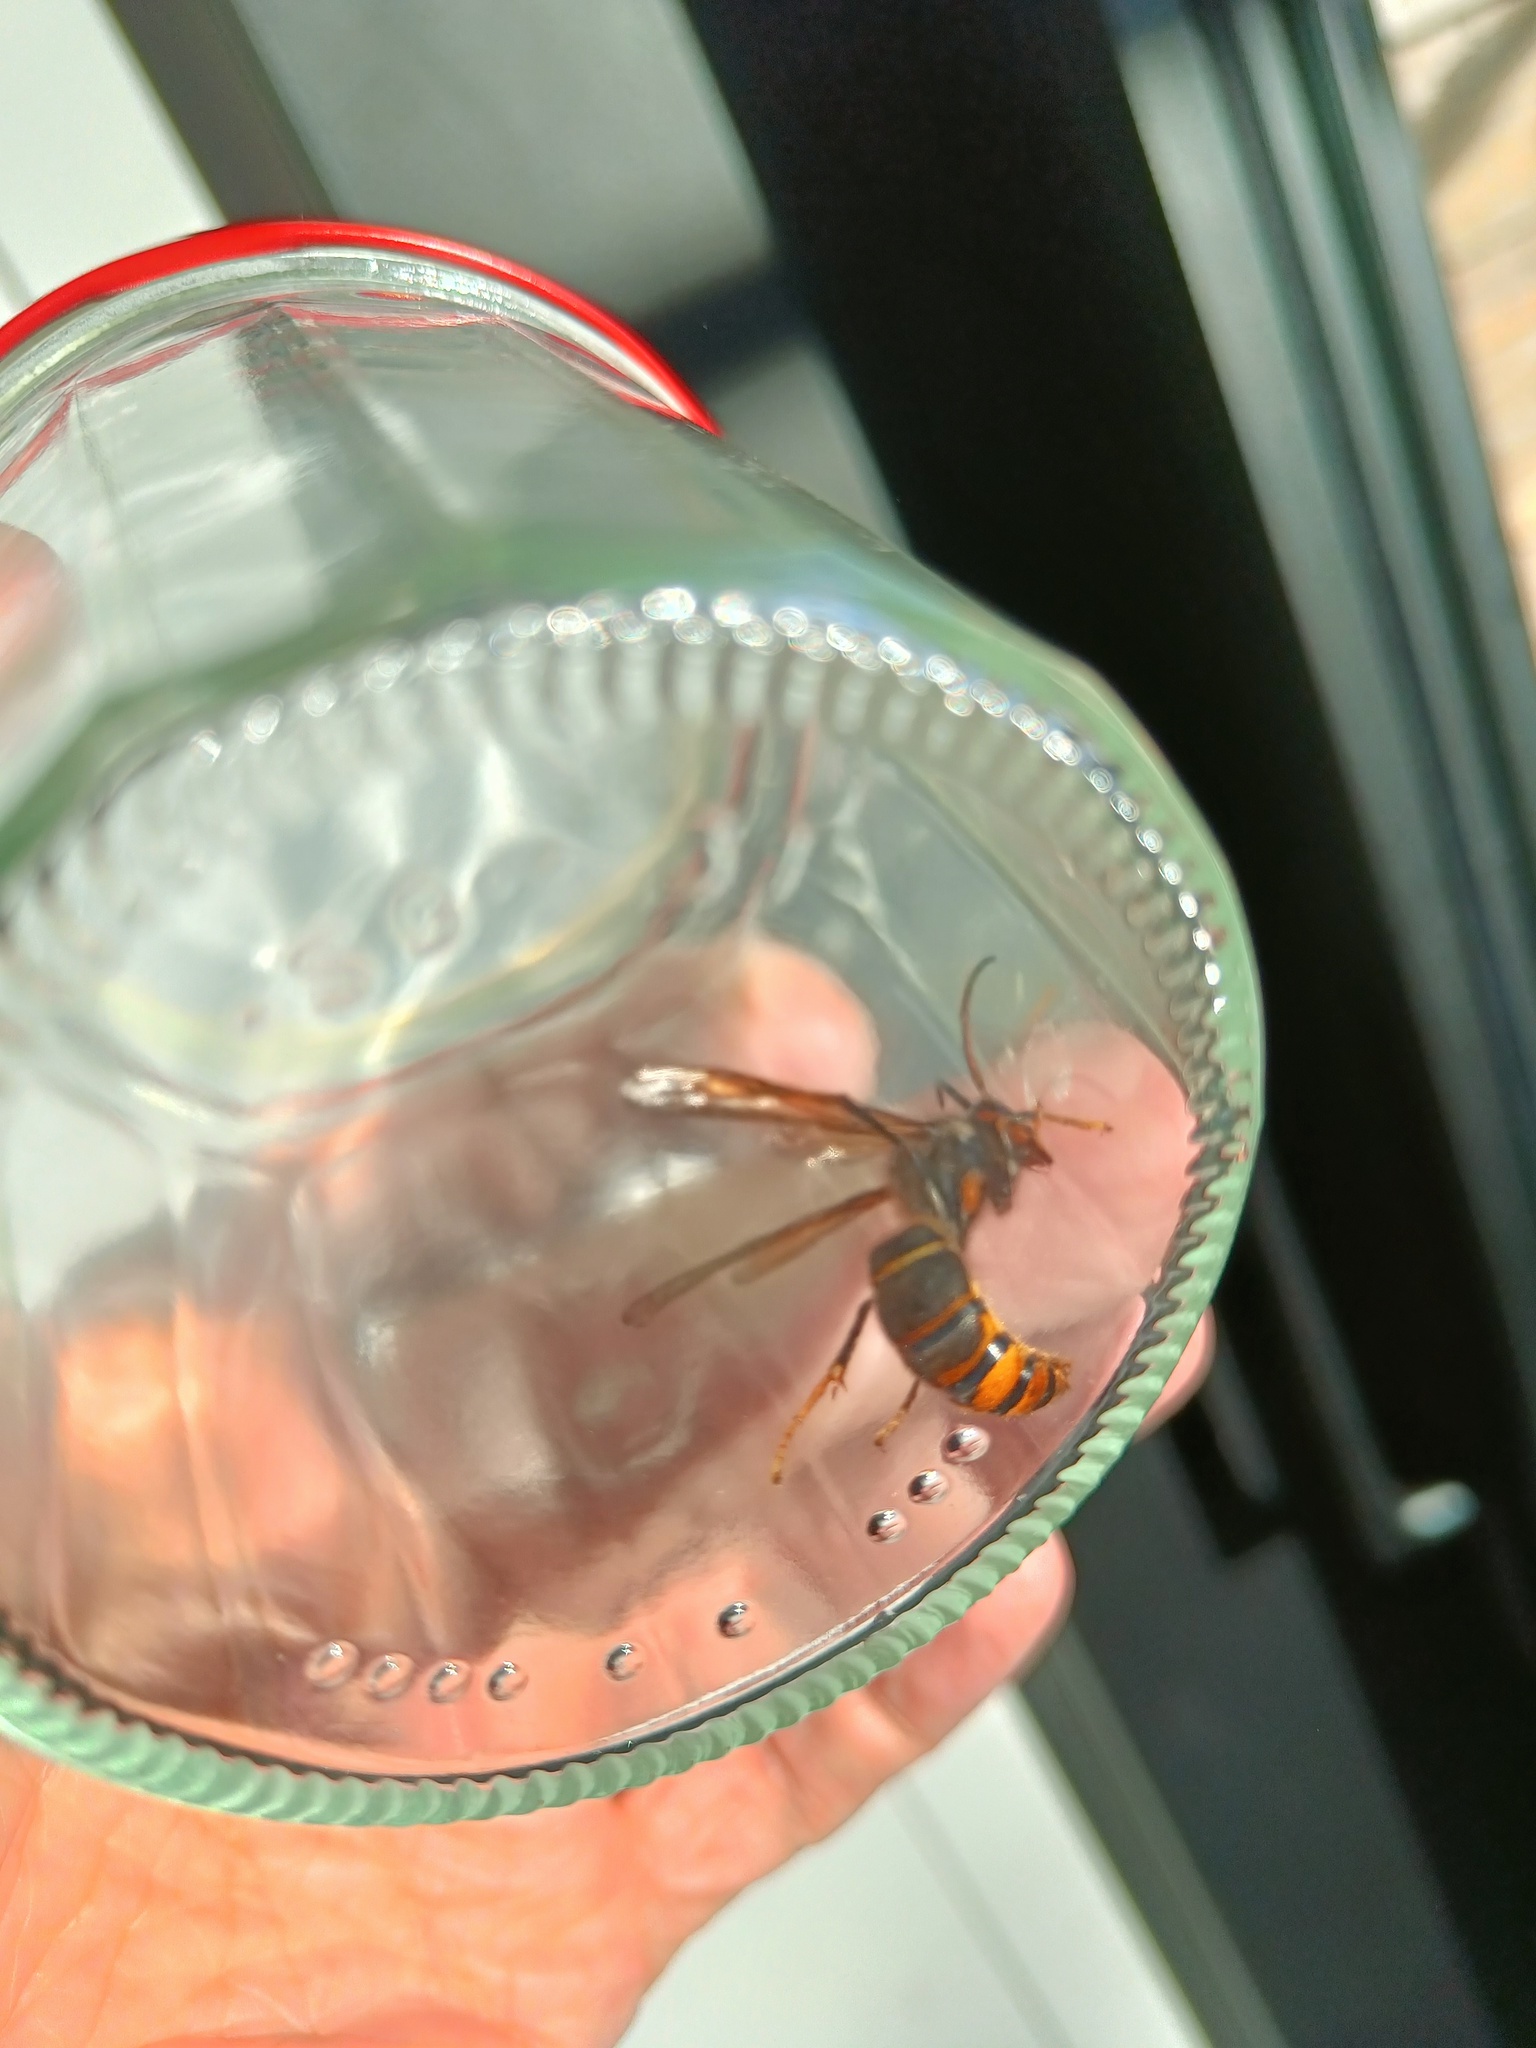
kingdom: Animalia
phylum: Arthropoda
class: Insecta
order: Hymenoptera
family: Vespidae
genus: Vespa
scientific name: Vespa velutina
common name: Asian hornet
